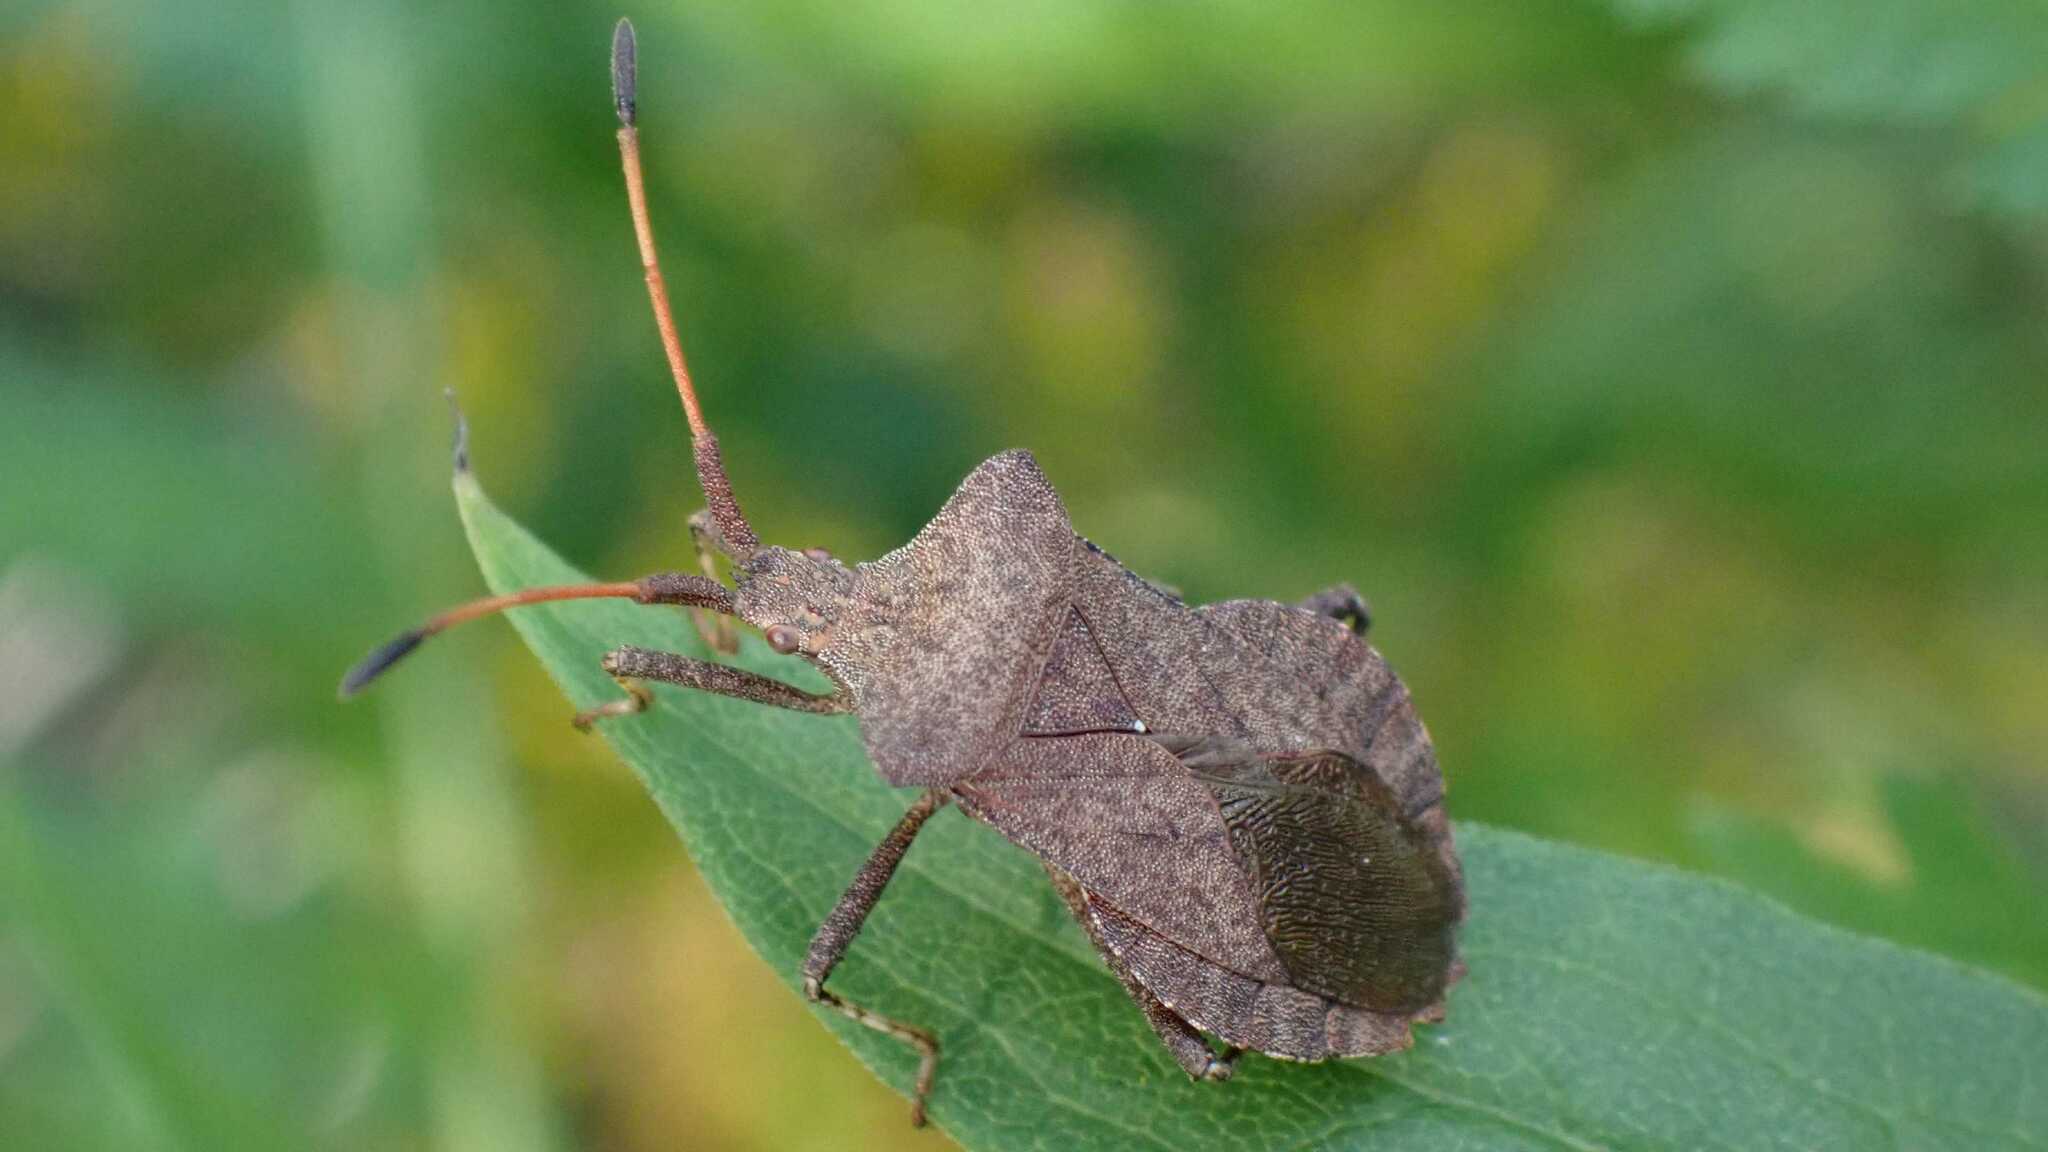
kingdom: Animalia
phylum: Arthropoda
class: Insecta
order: Hemiptera
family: Coreidae
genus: Coreus
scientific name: Coreus marginatus
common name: Dock bug
